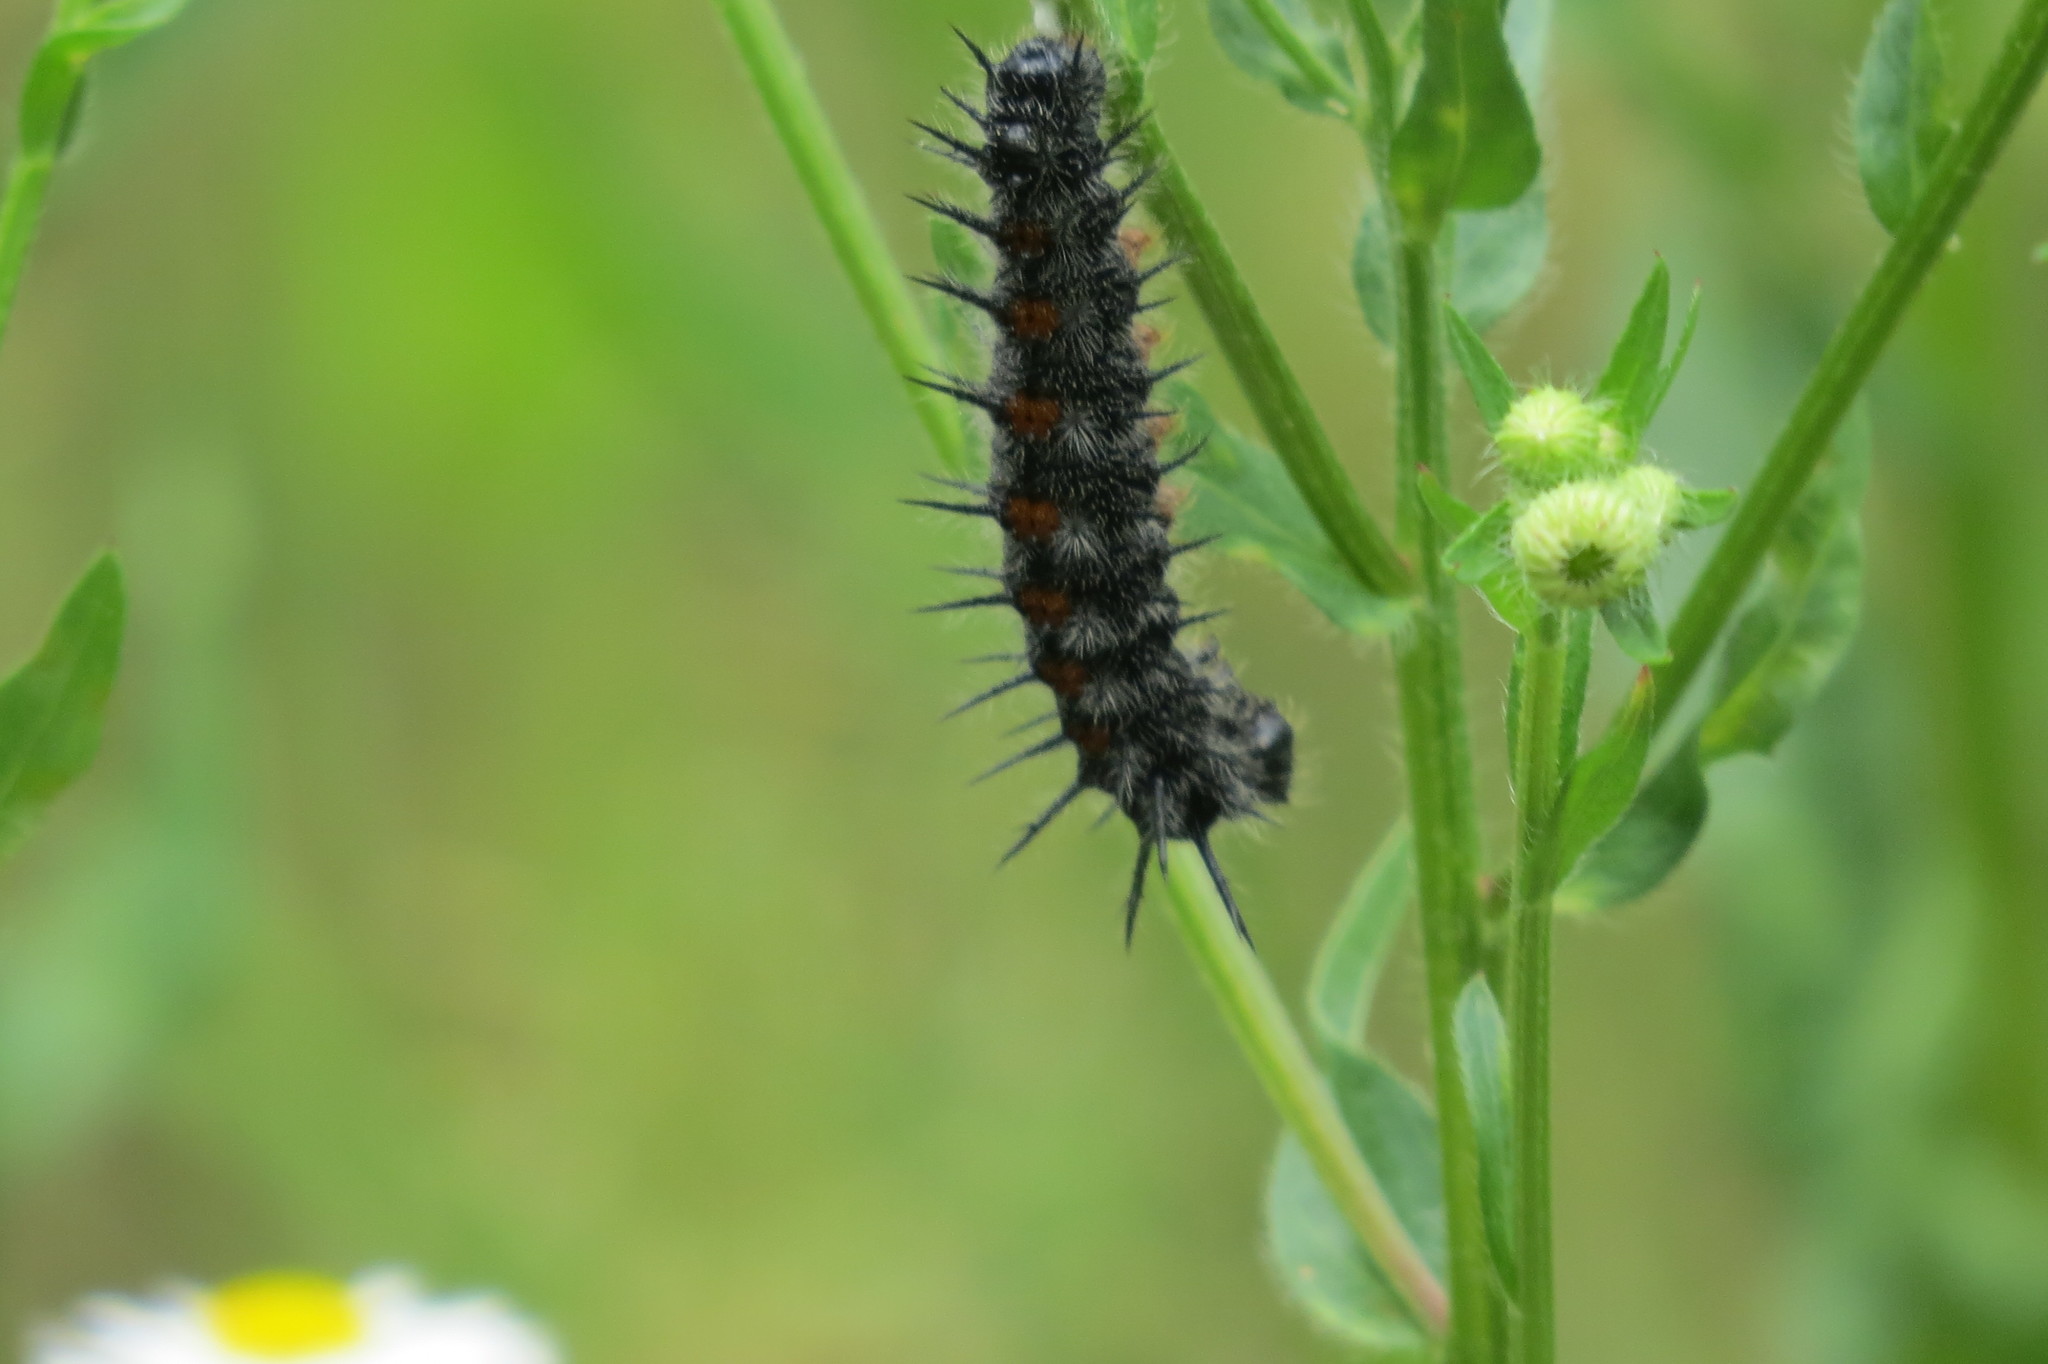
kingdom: Animalia
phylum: Arthropoda
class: Insecta
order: Lepidoptera
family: Nymphalidae
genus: Nymphalis
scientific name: Nymphalis antiopa
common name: Camberwell beauty
